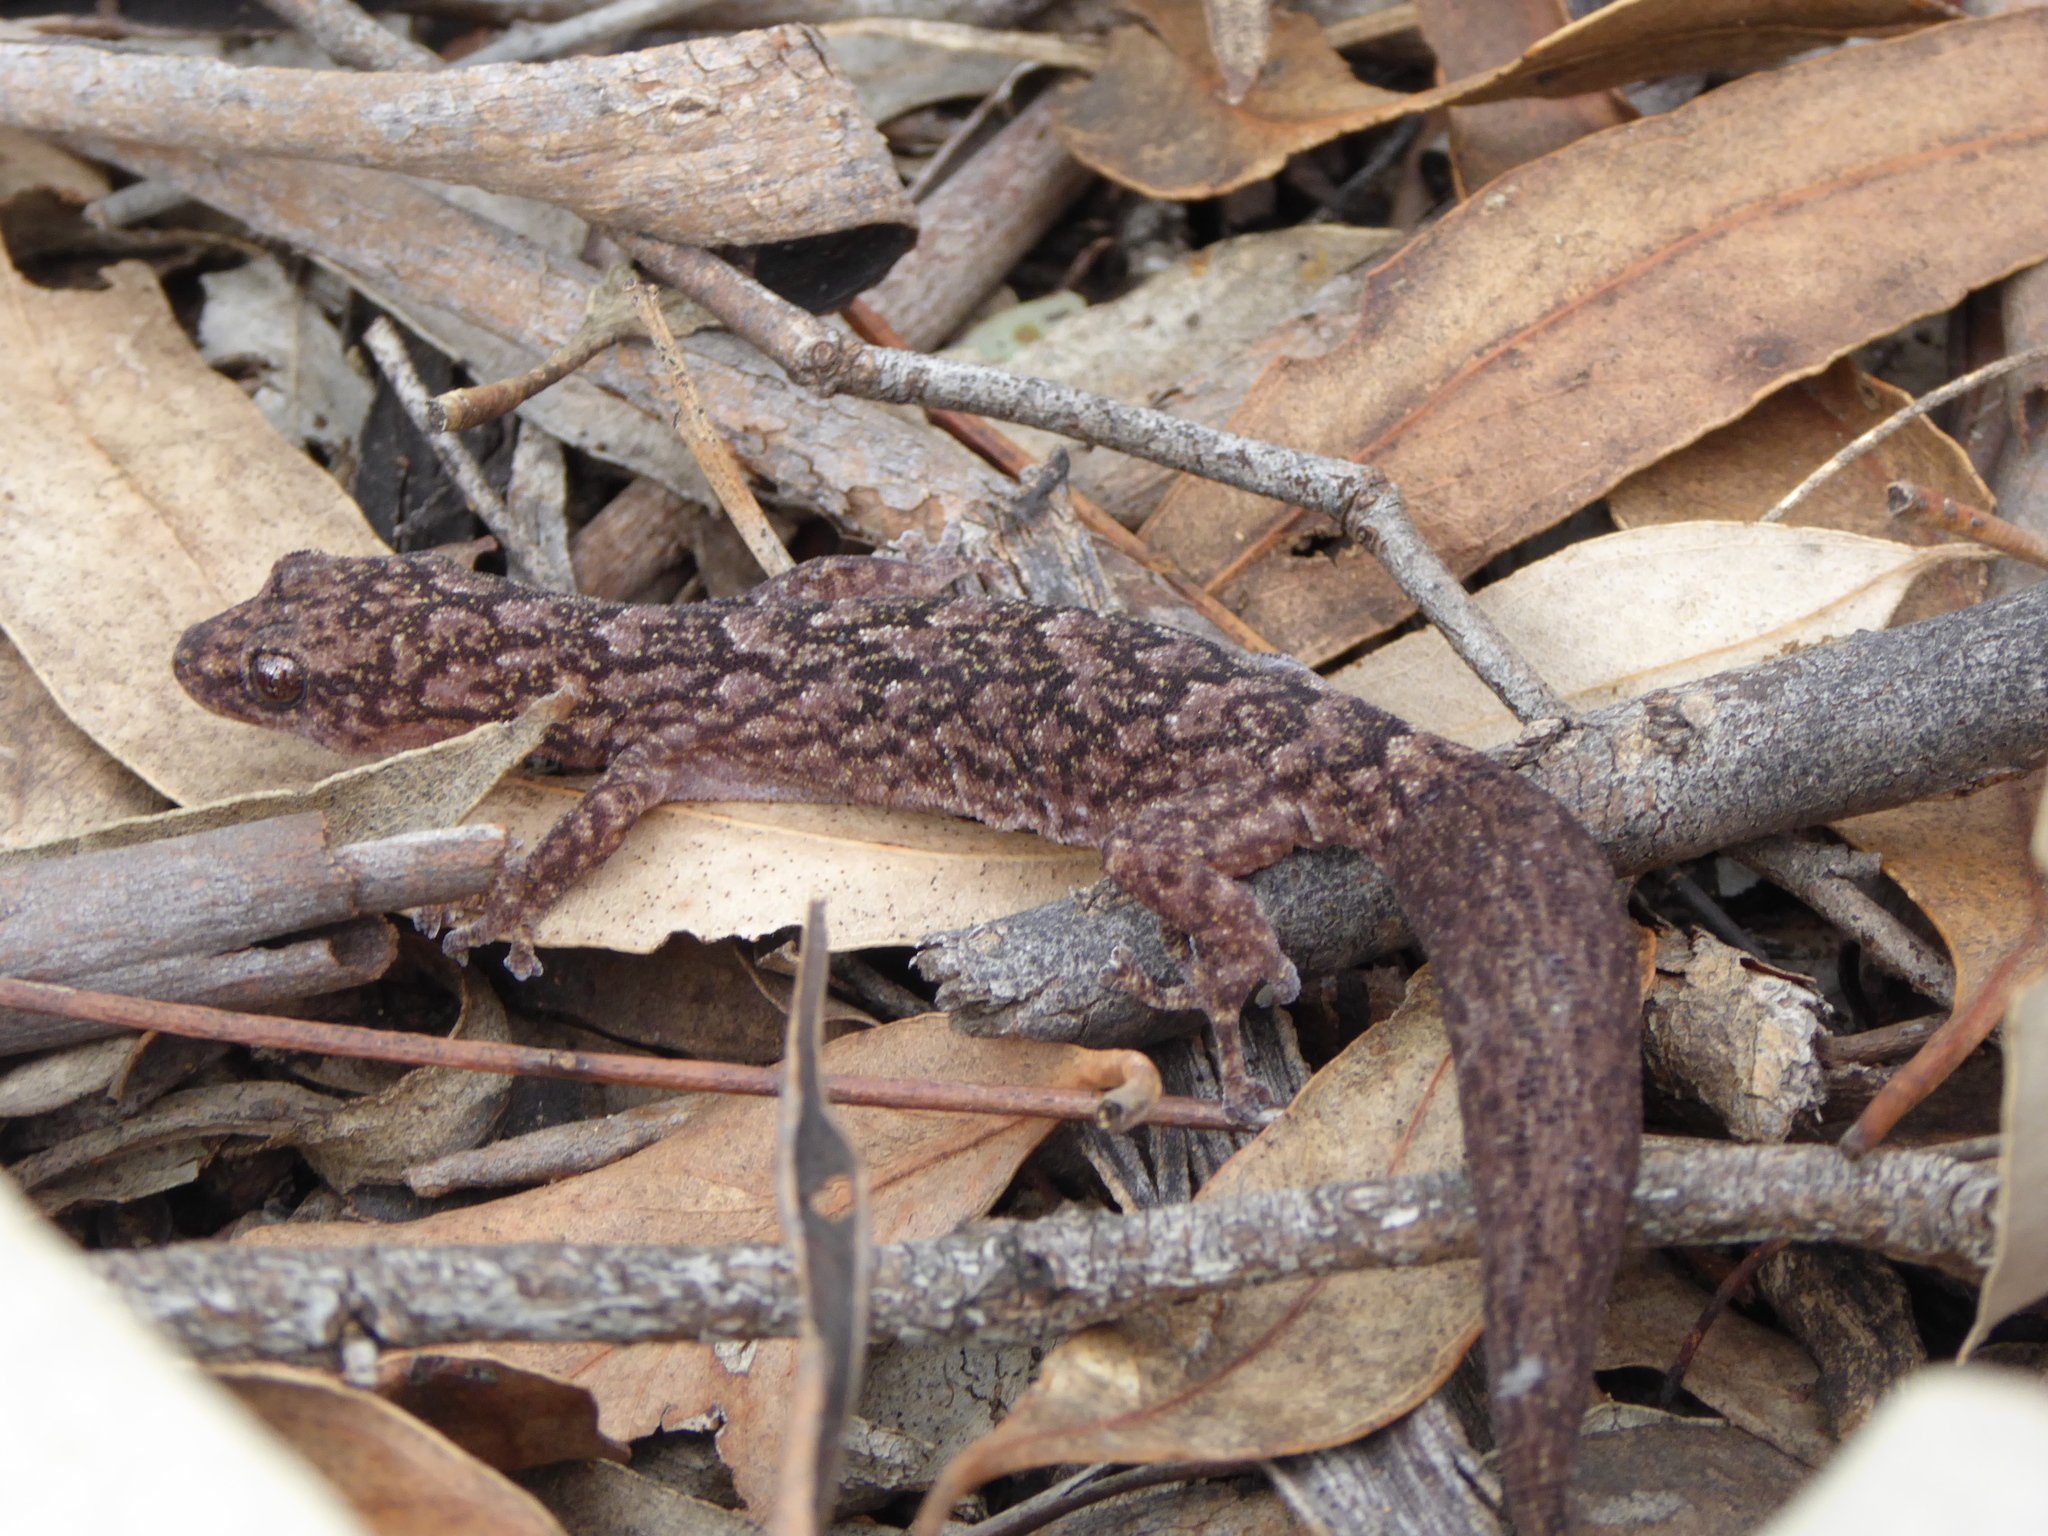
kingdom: Animalia
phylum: Chordata
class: Squamata
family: Gekkonidae
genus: Christinus
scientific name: Christinus marmoratus
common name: Marbled gecko
